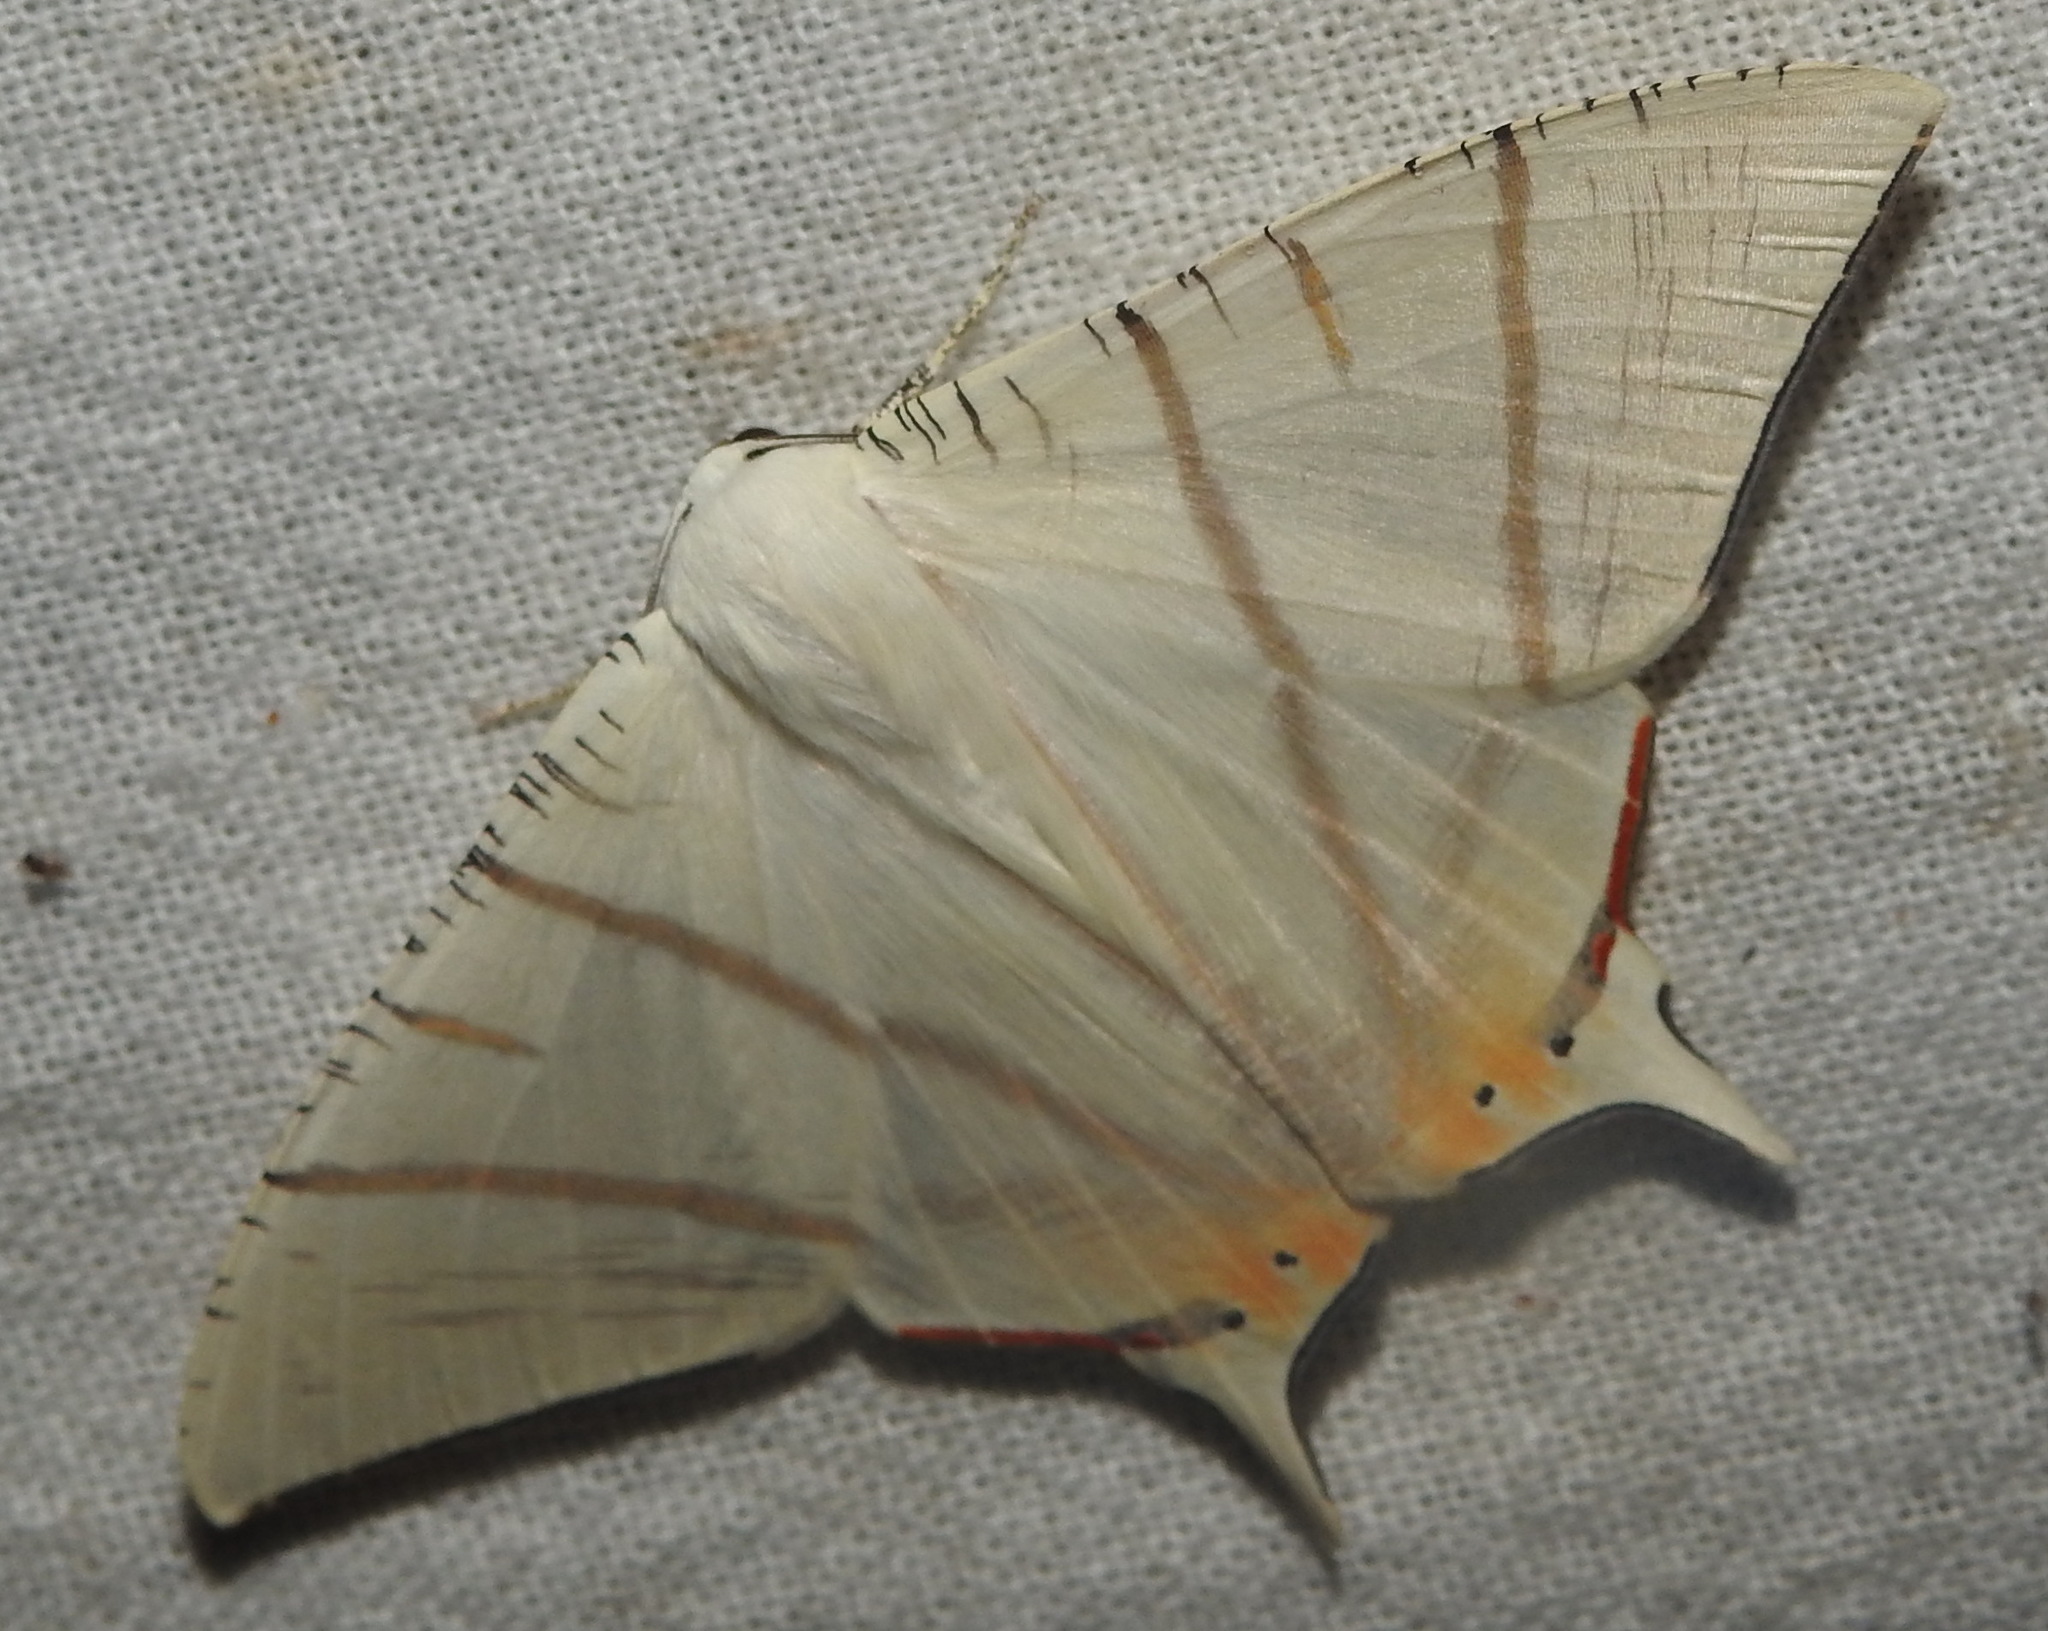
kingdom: Animalia
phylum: Arthropoda
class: Insecta
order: Lepidoptera
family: Geometridae
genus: Ourapteryx
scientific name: Ourapteryx marginata
